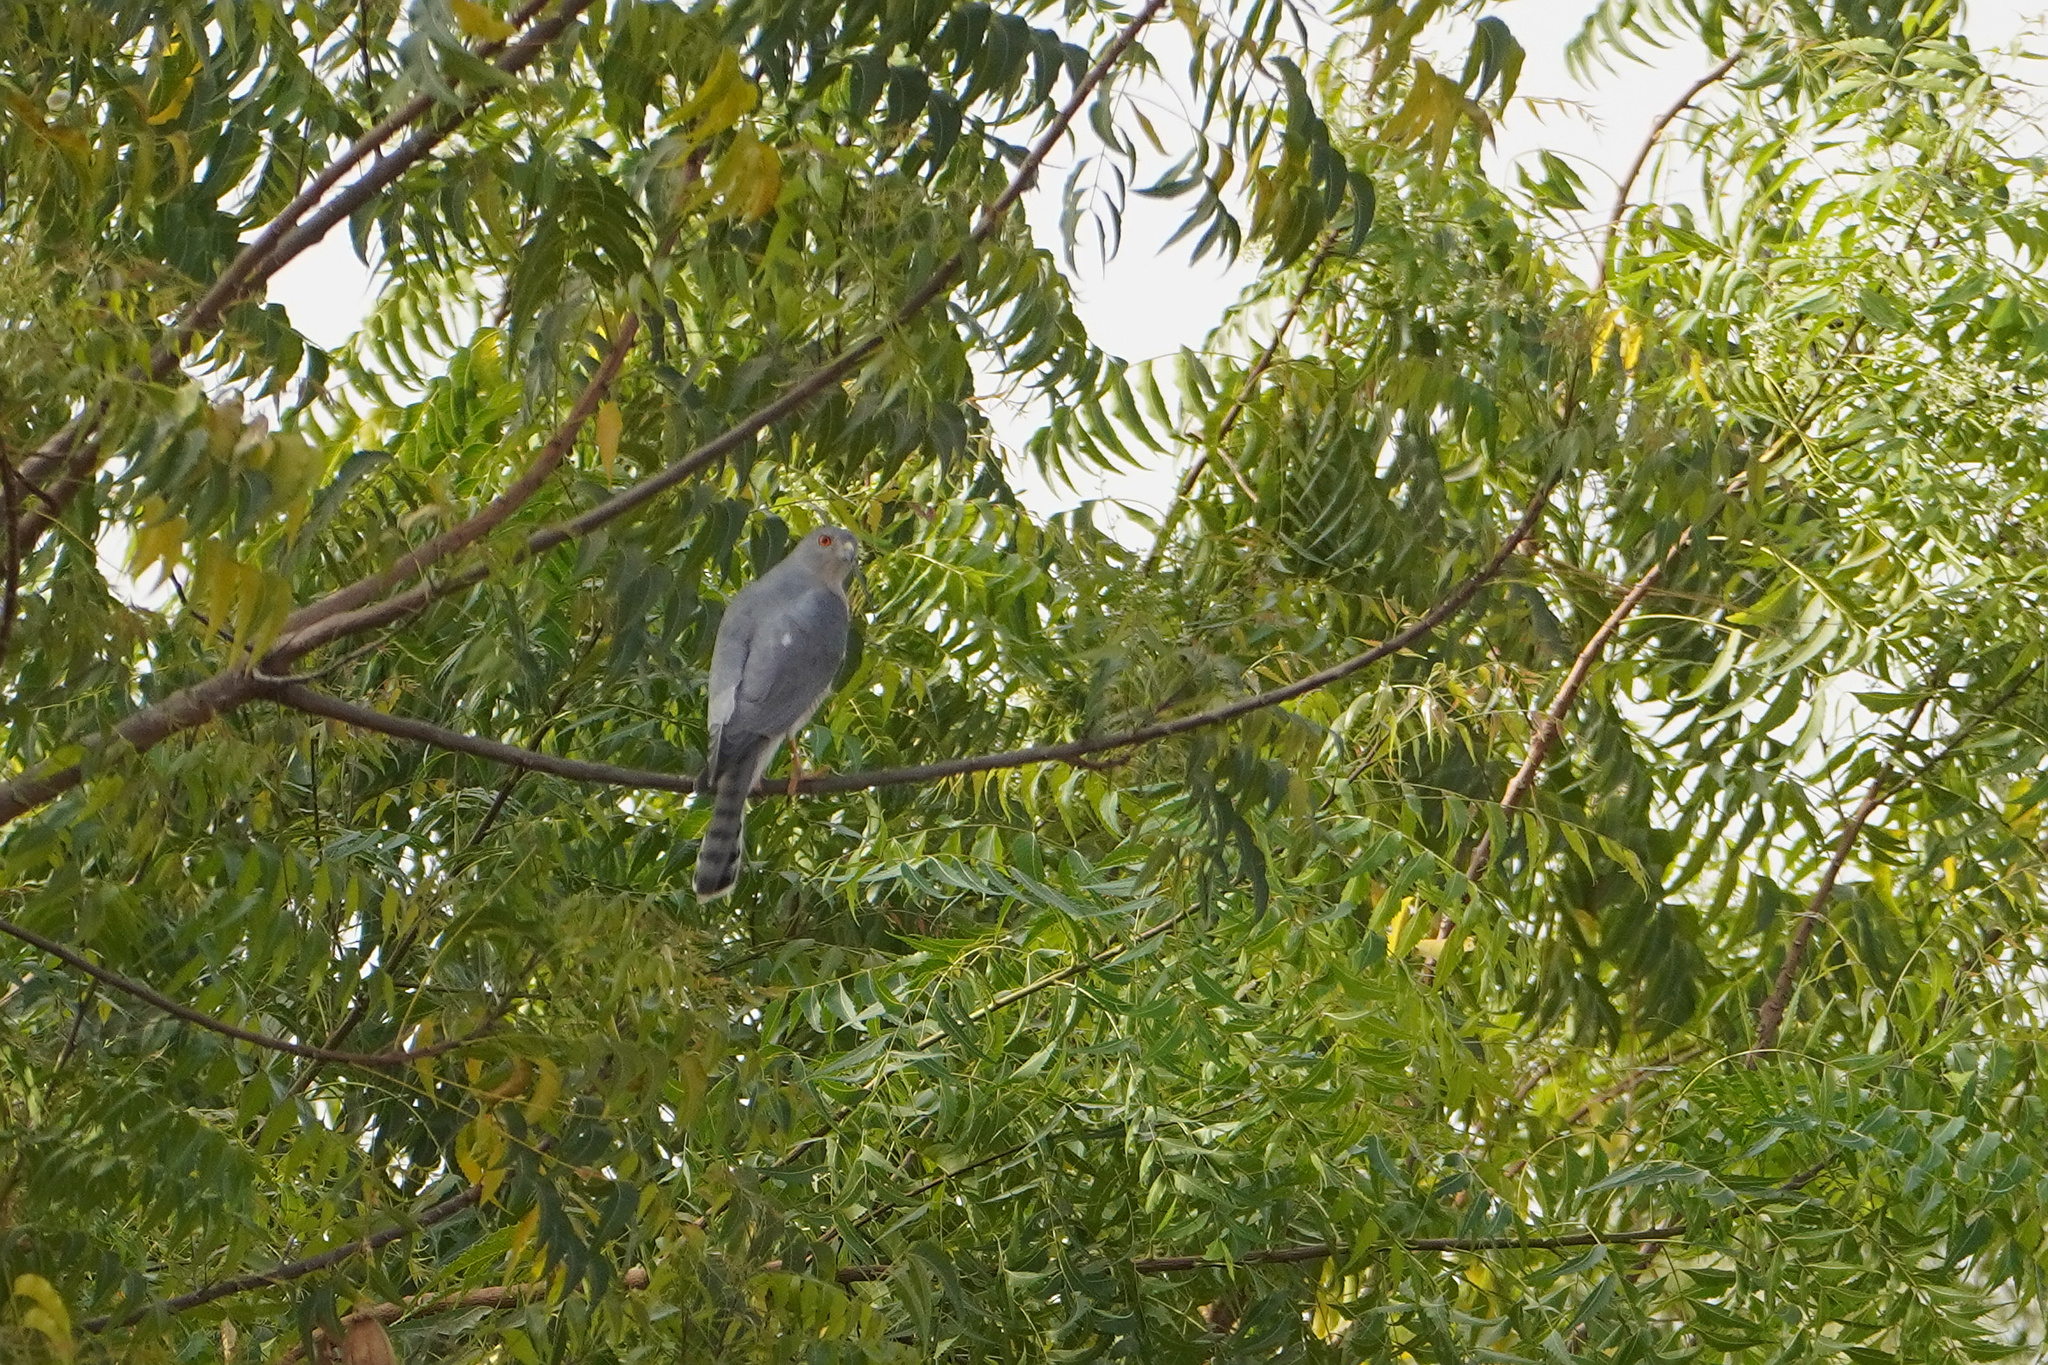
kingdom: Animalia
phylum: Chordata
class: Aves
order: Accipitriformes
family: Accipitridae
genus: Accipiter
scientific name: Accipiter badius
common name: Shikra
